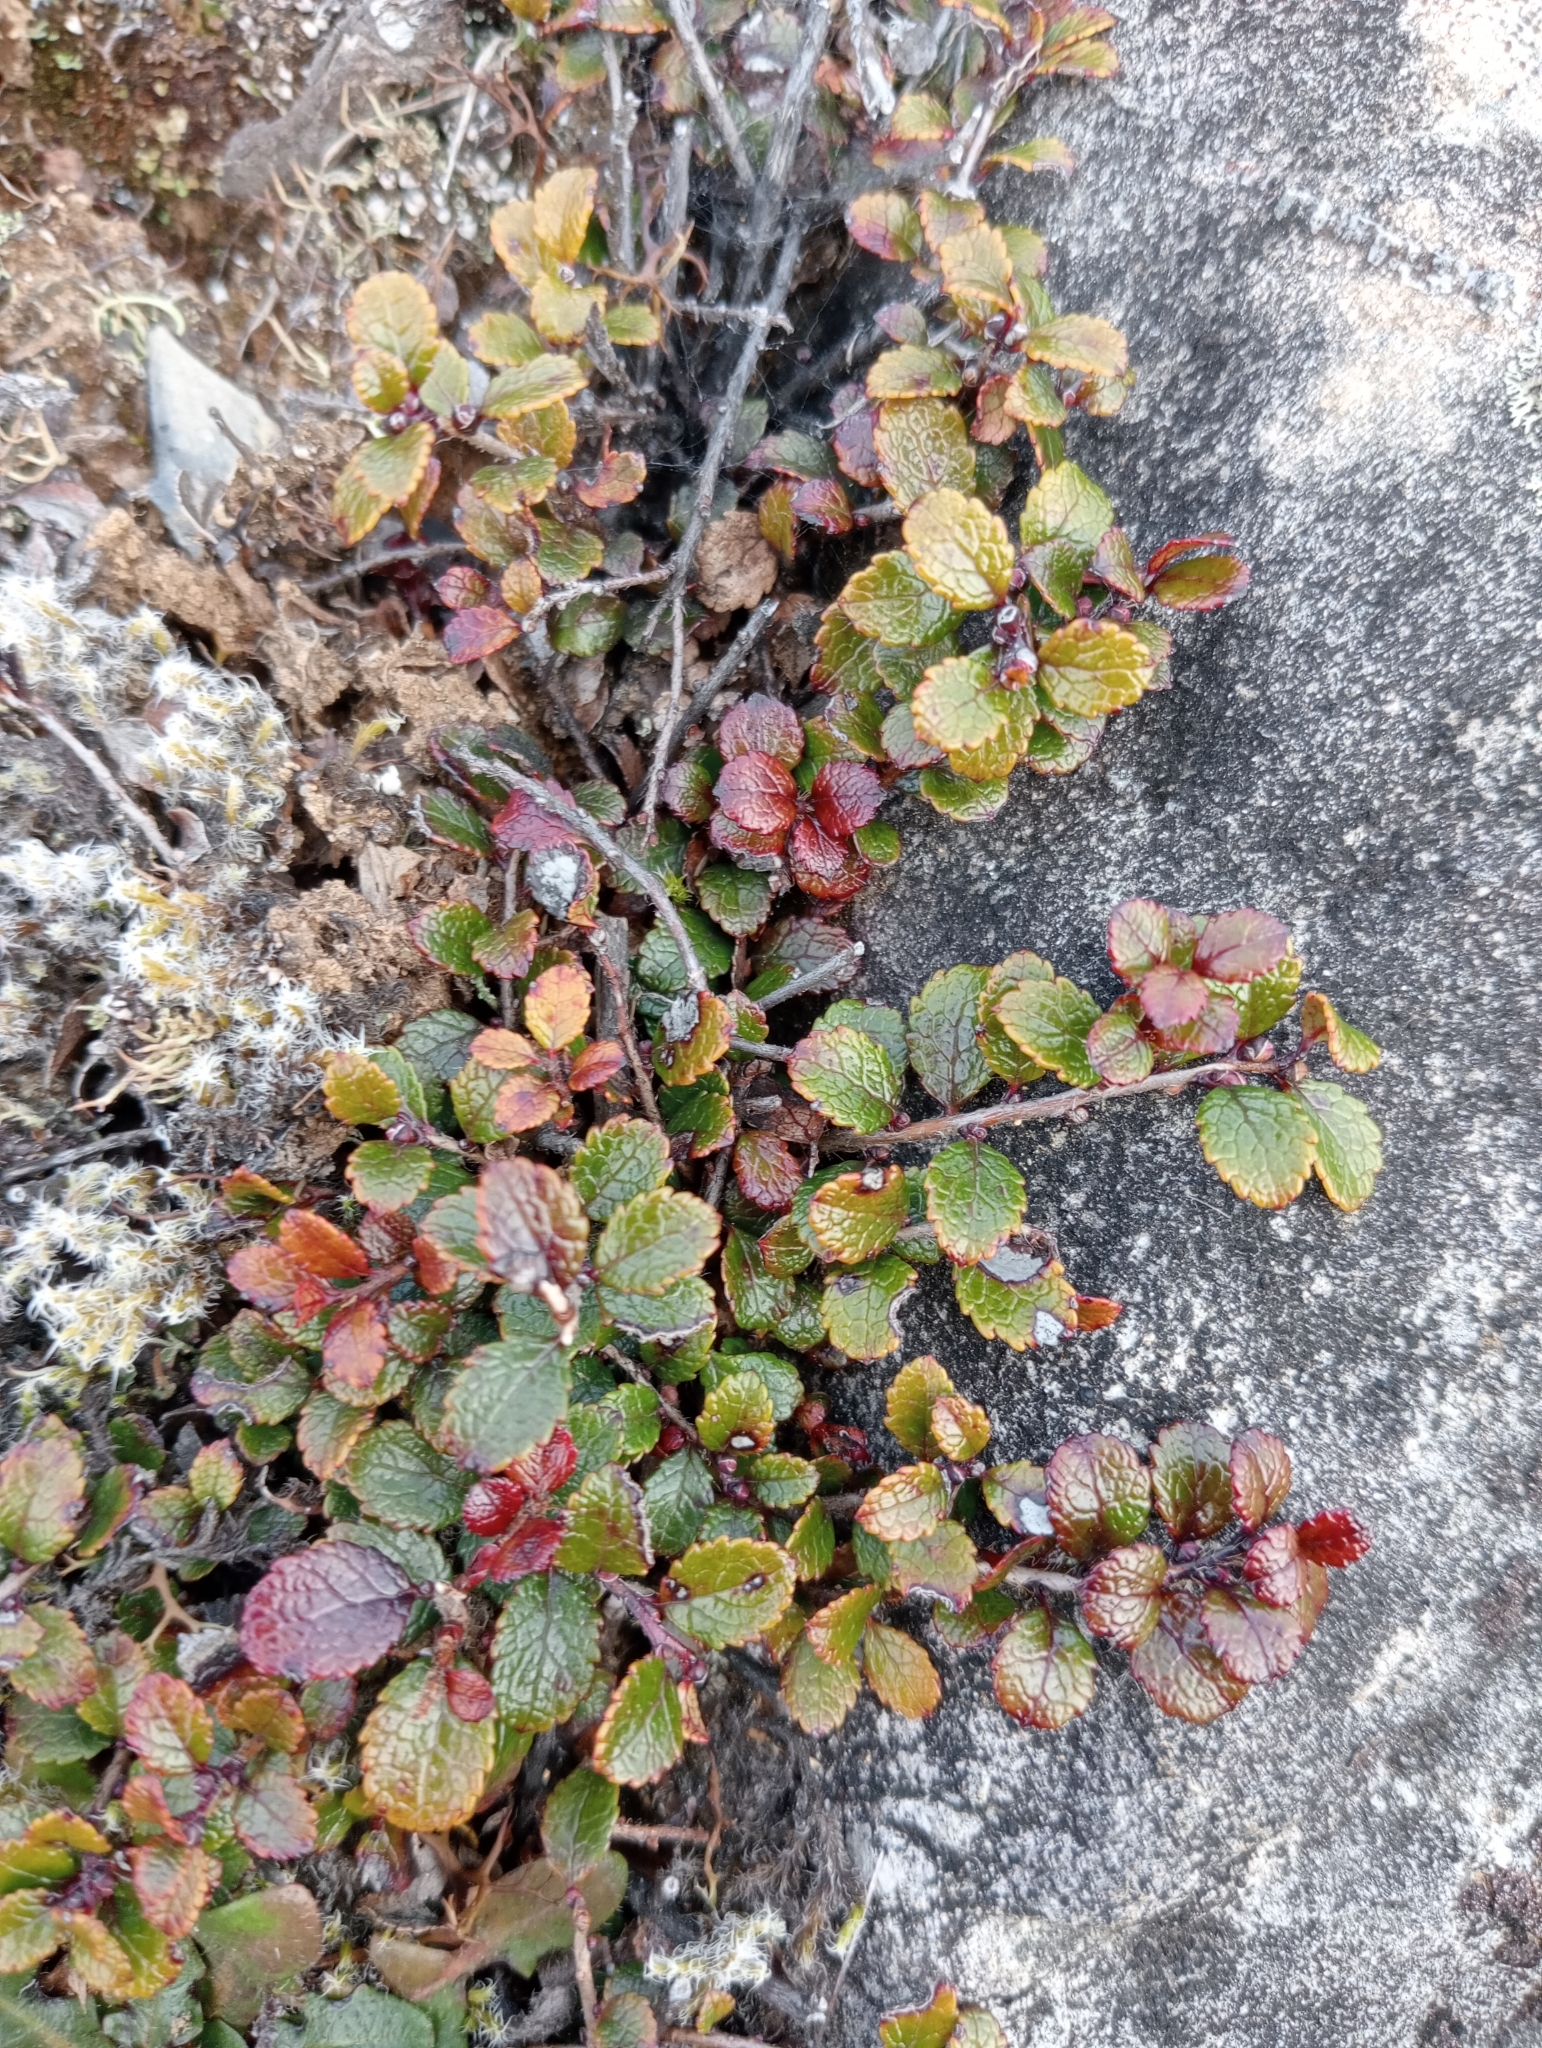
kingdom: Plantae
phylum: Tracheophyta
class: Magnoliopsida
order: Ericales
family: Ericaceae
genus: Gaultheria
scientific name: Gaultheria depressa
